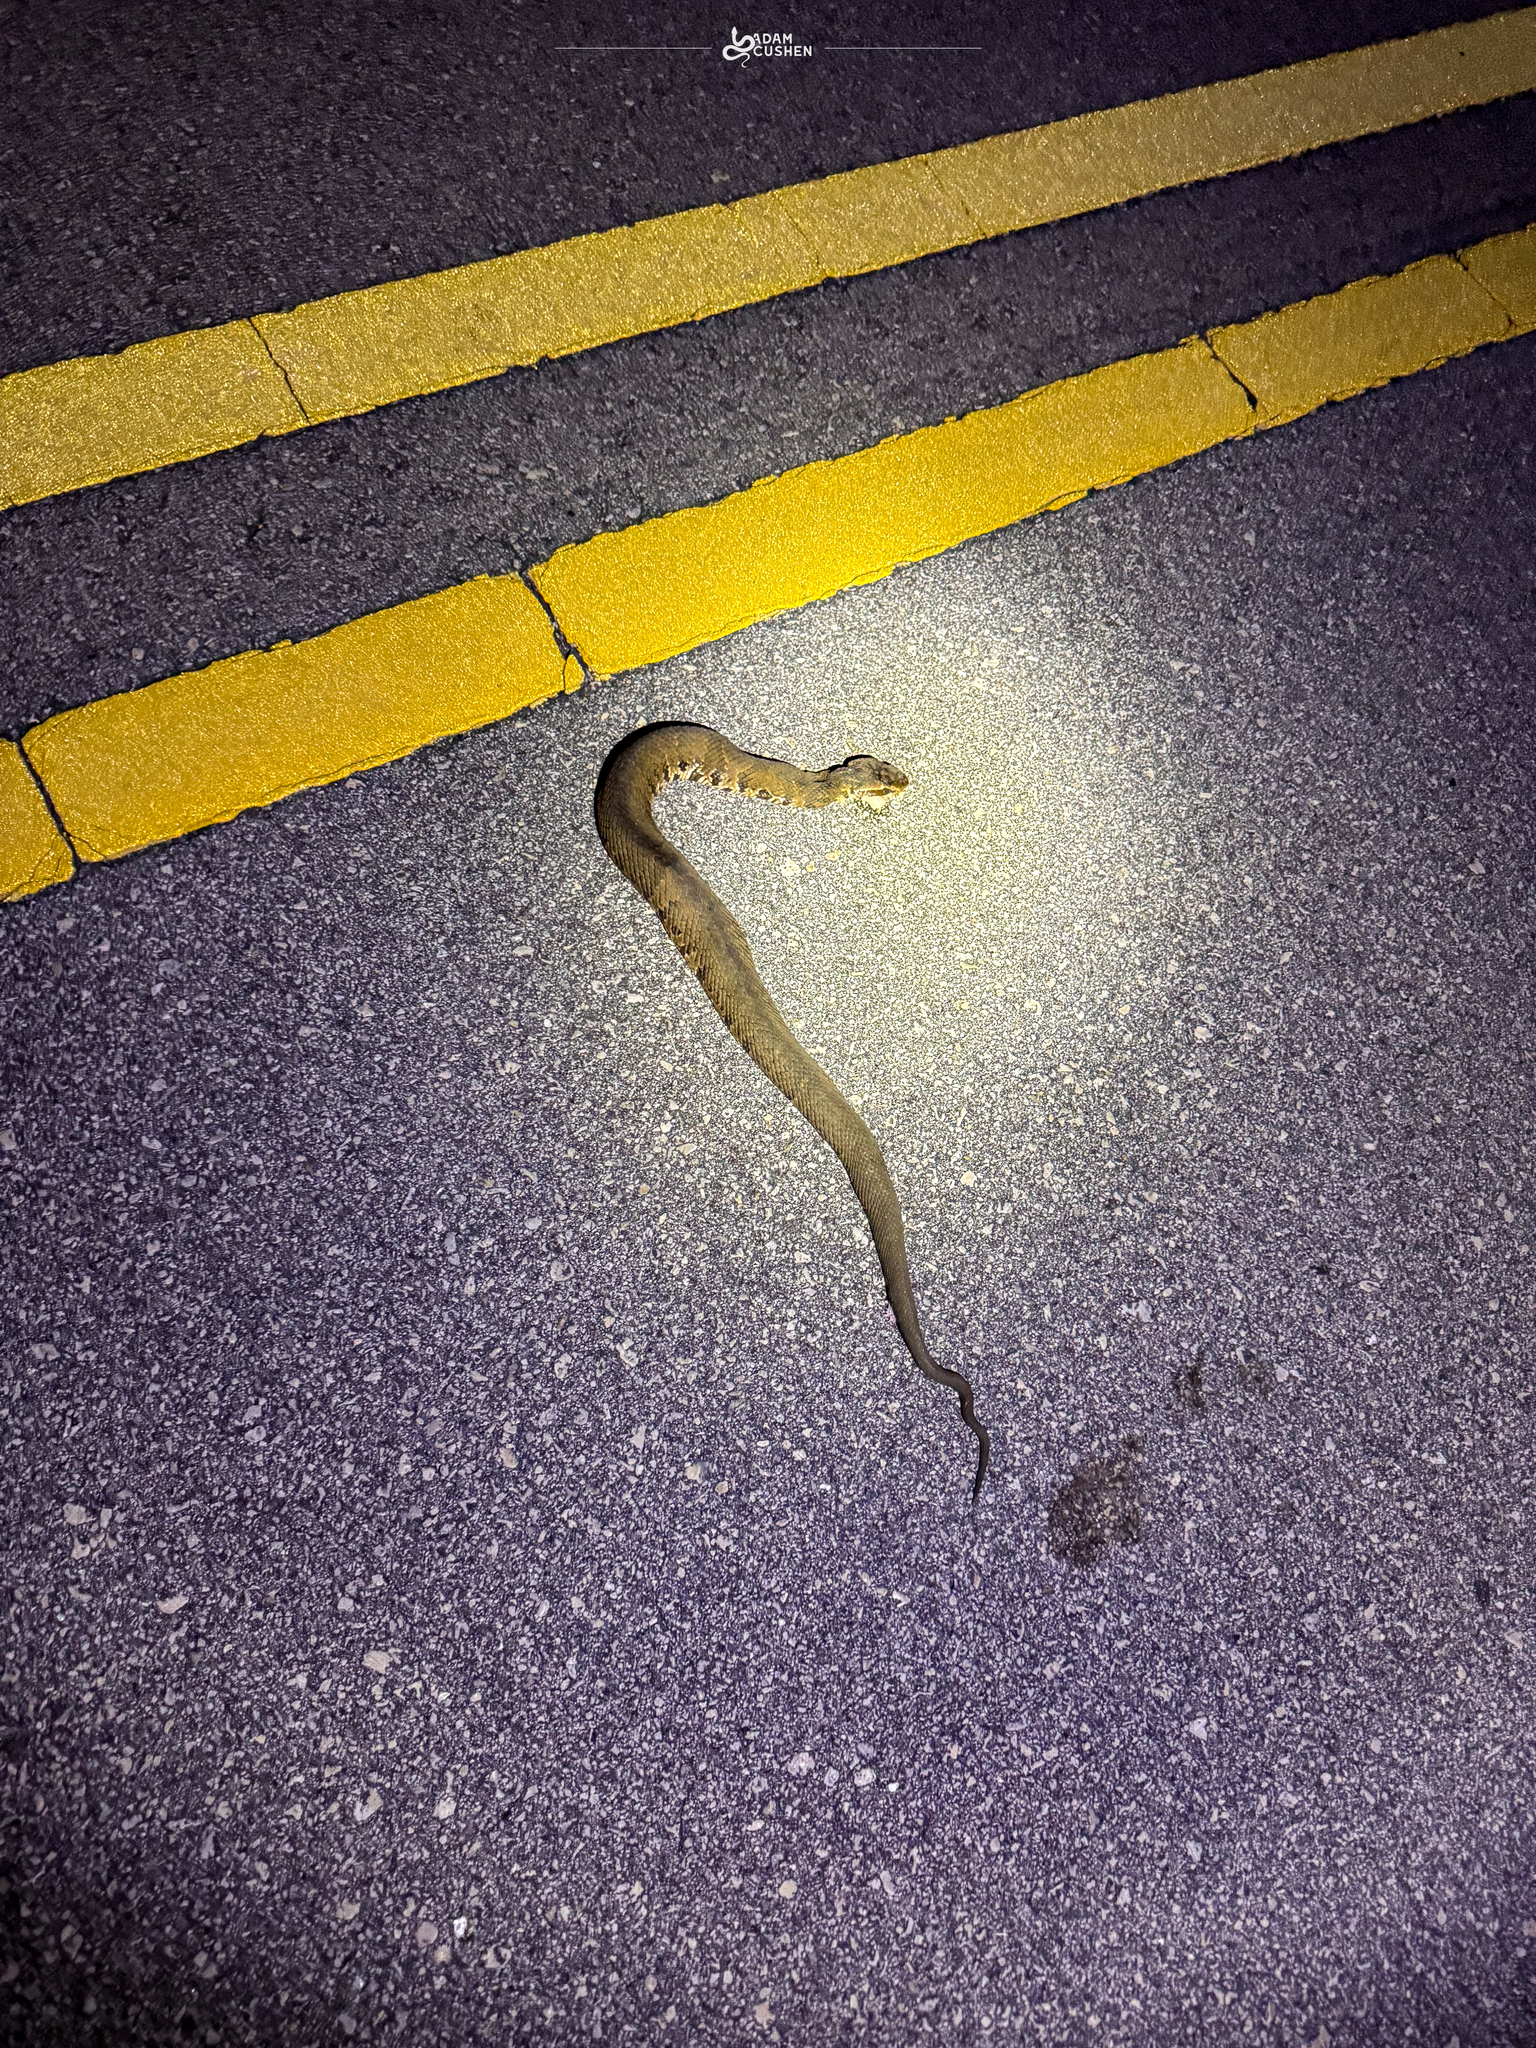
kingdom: Animalia
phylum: Chordata
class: Squamata
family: Viperidae
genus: Agkistrodon
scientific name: Agkistrodon conanti
